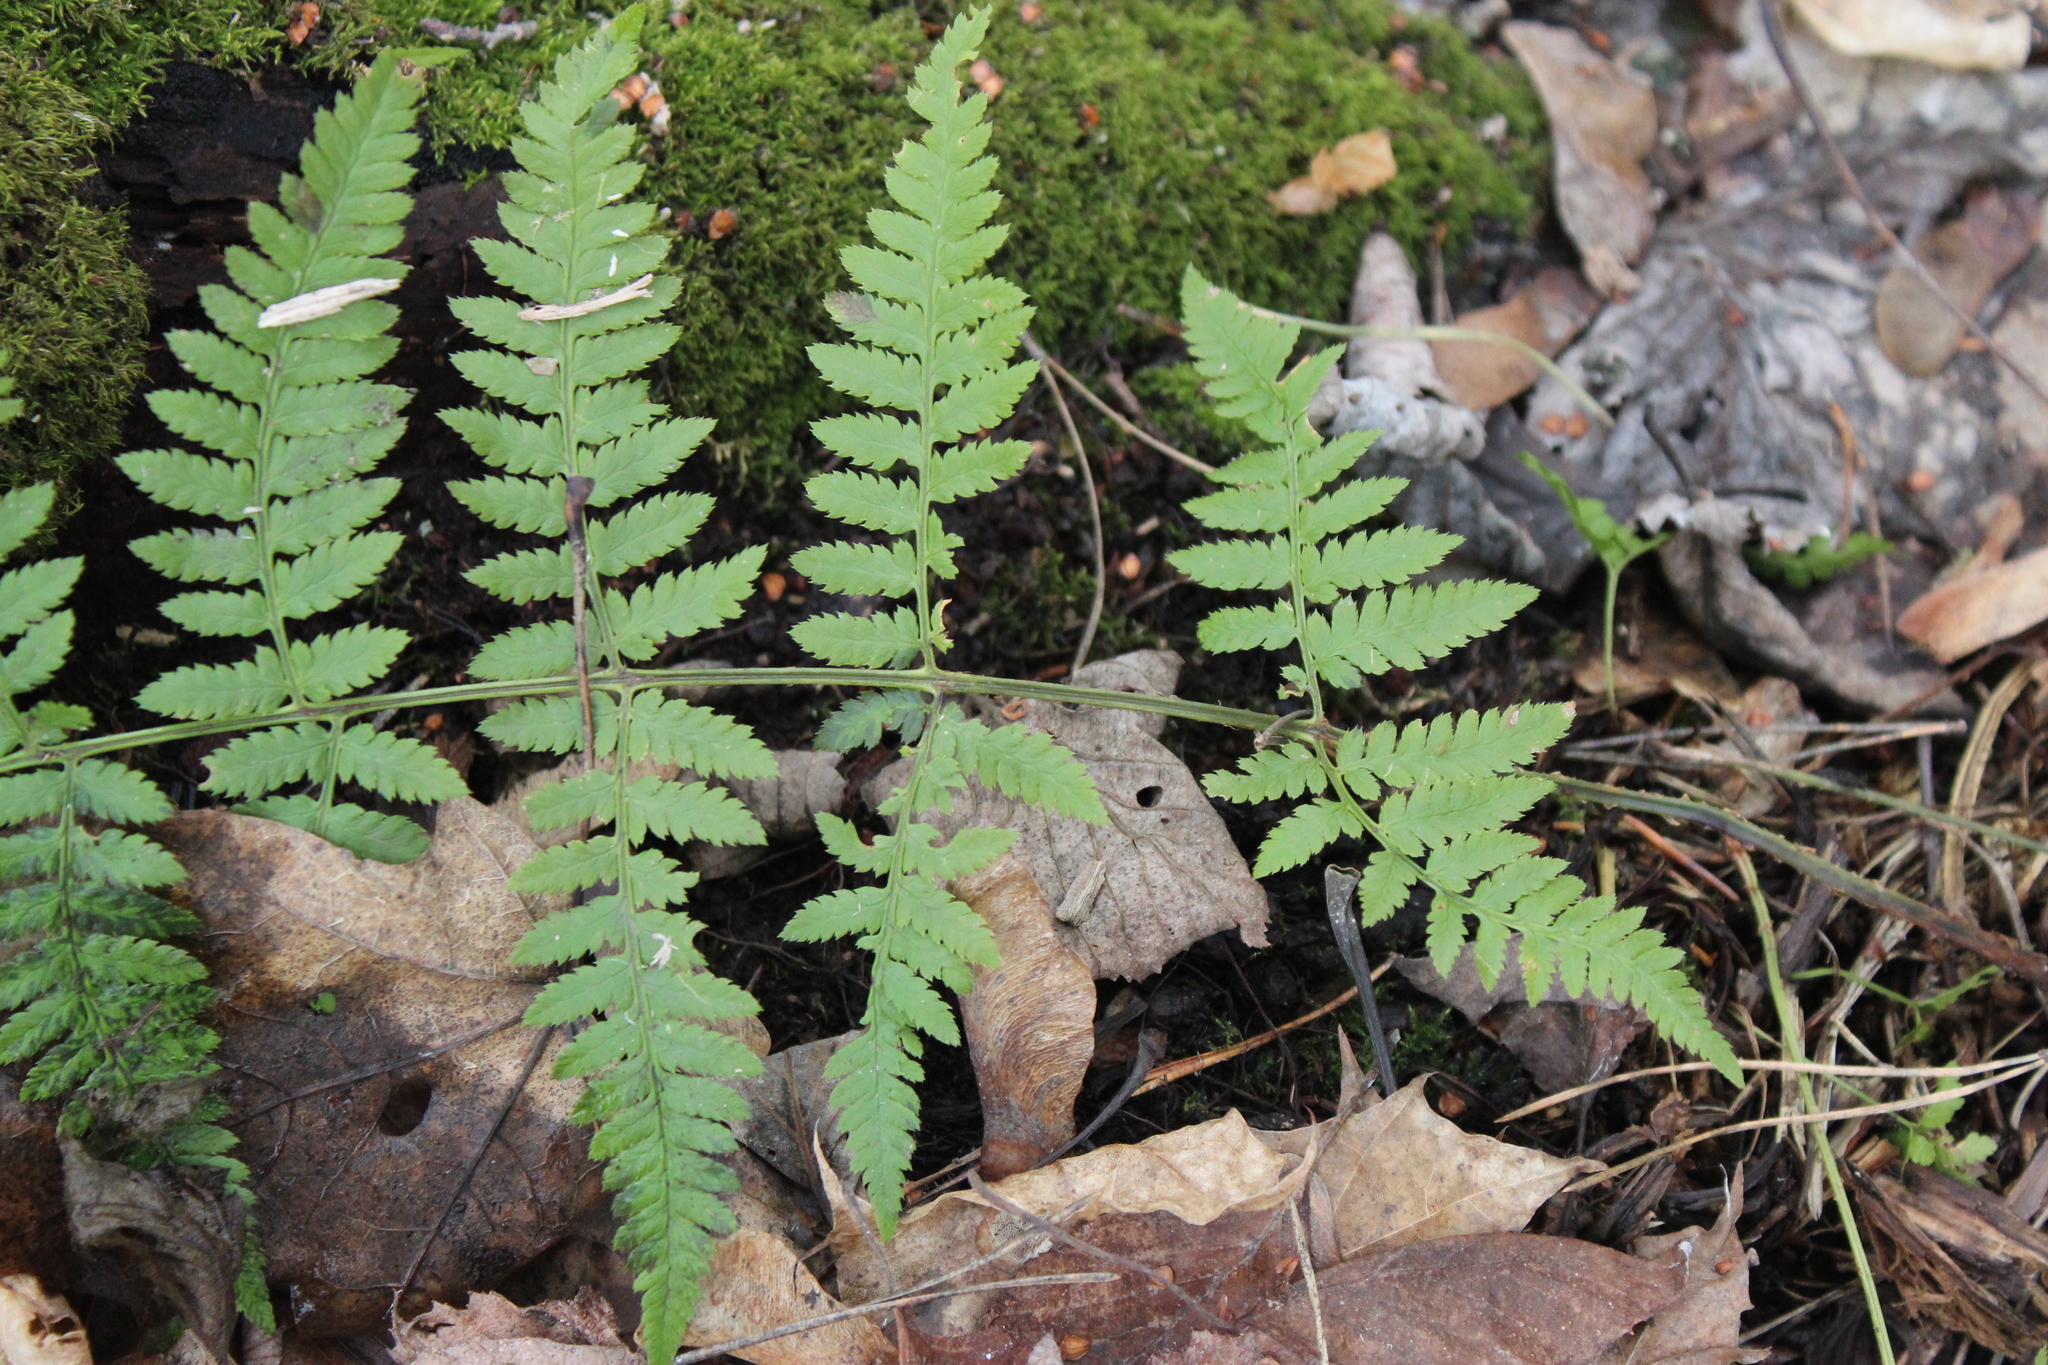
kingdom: Plantae
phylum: Tracheophyta
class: Polypodiopsida
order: Polypodiales
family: Dryopteridaceae
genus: Dryopteris
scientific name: Dryopteris carthusiana
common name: Narrow buckler-fern
